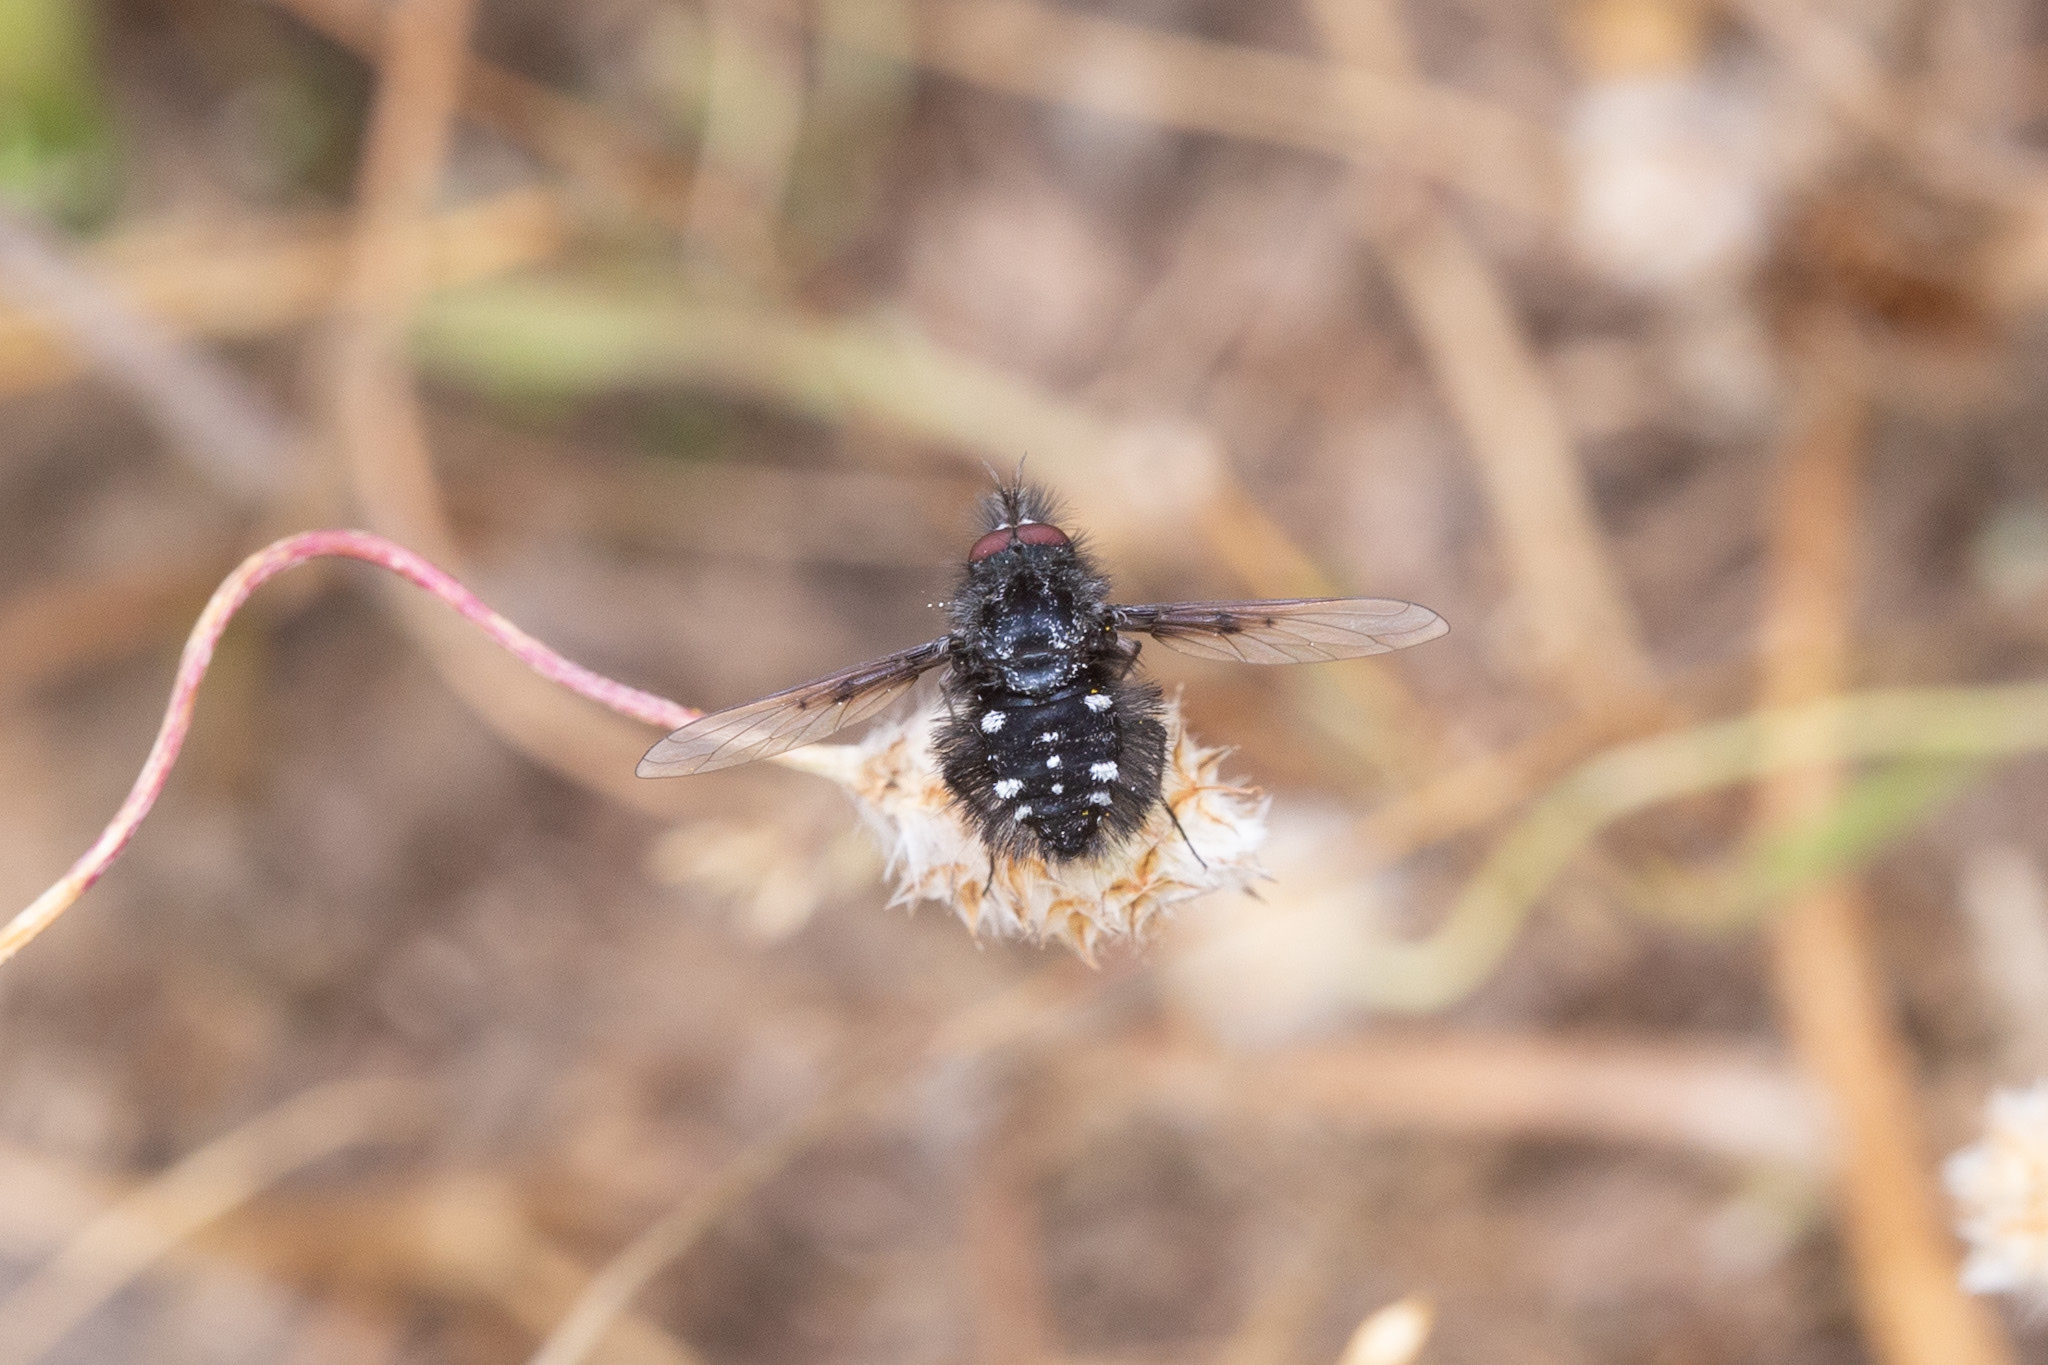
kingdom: Animalia
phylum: Arthropoda
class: Insecta
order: Diptera
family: Bombyliidae
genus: Bombylella
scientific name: Bombylella atra
